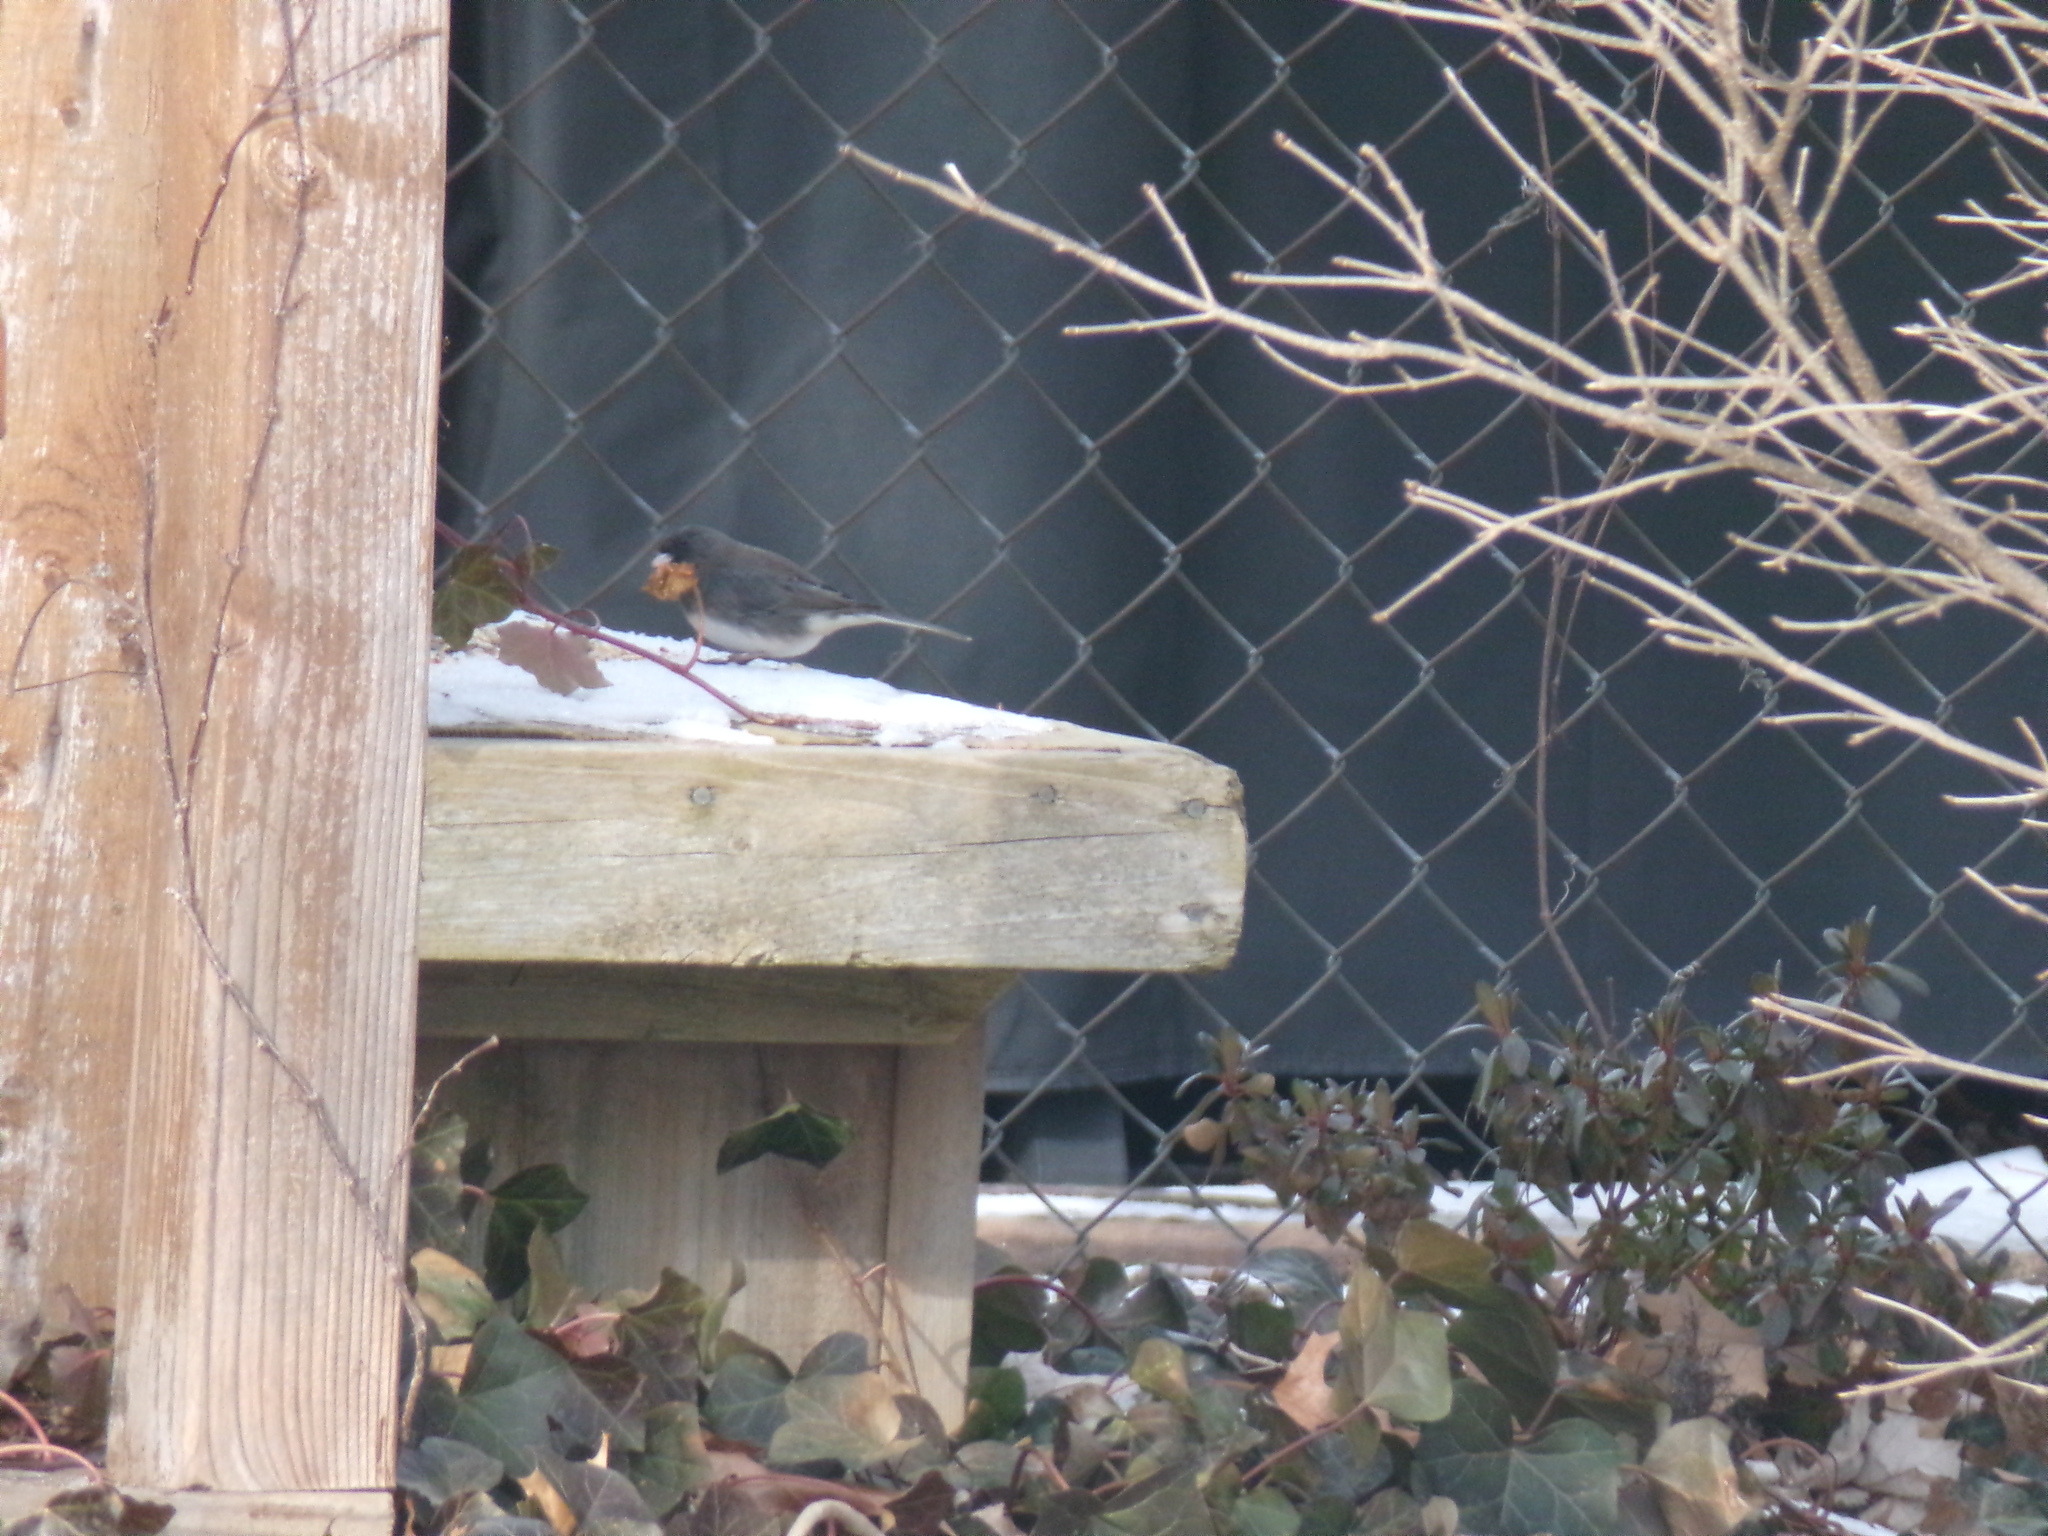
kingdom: Animalia
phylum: Chordata
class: Aves
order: Passeriformes
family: Passerellidae
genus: Junco
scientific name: Junco hyemalis
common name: Dark-eyed junco
